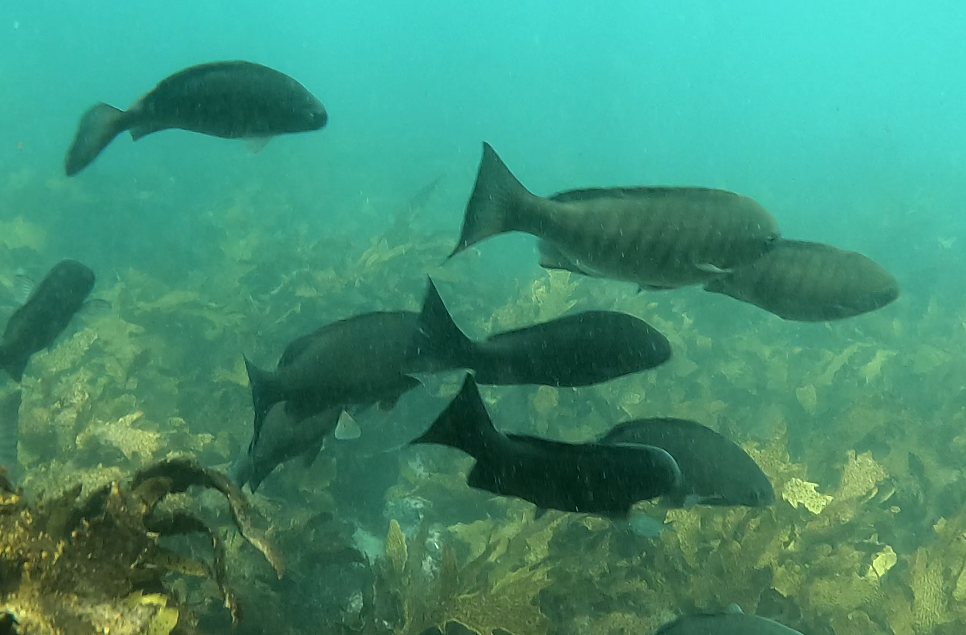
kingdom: Animalia
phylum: Chordata
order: Perciformes
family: Kyphosidae
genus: Girella
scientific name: Girella tricuspidata
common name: Parore
